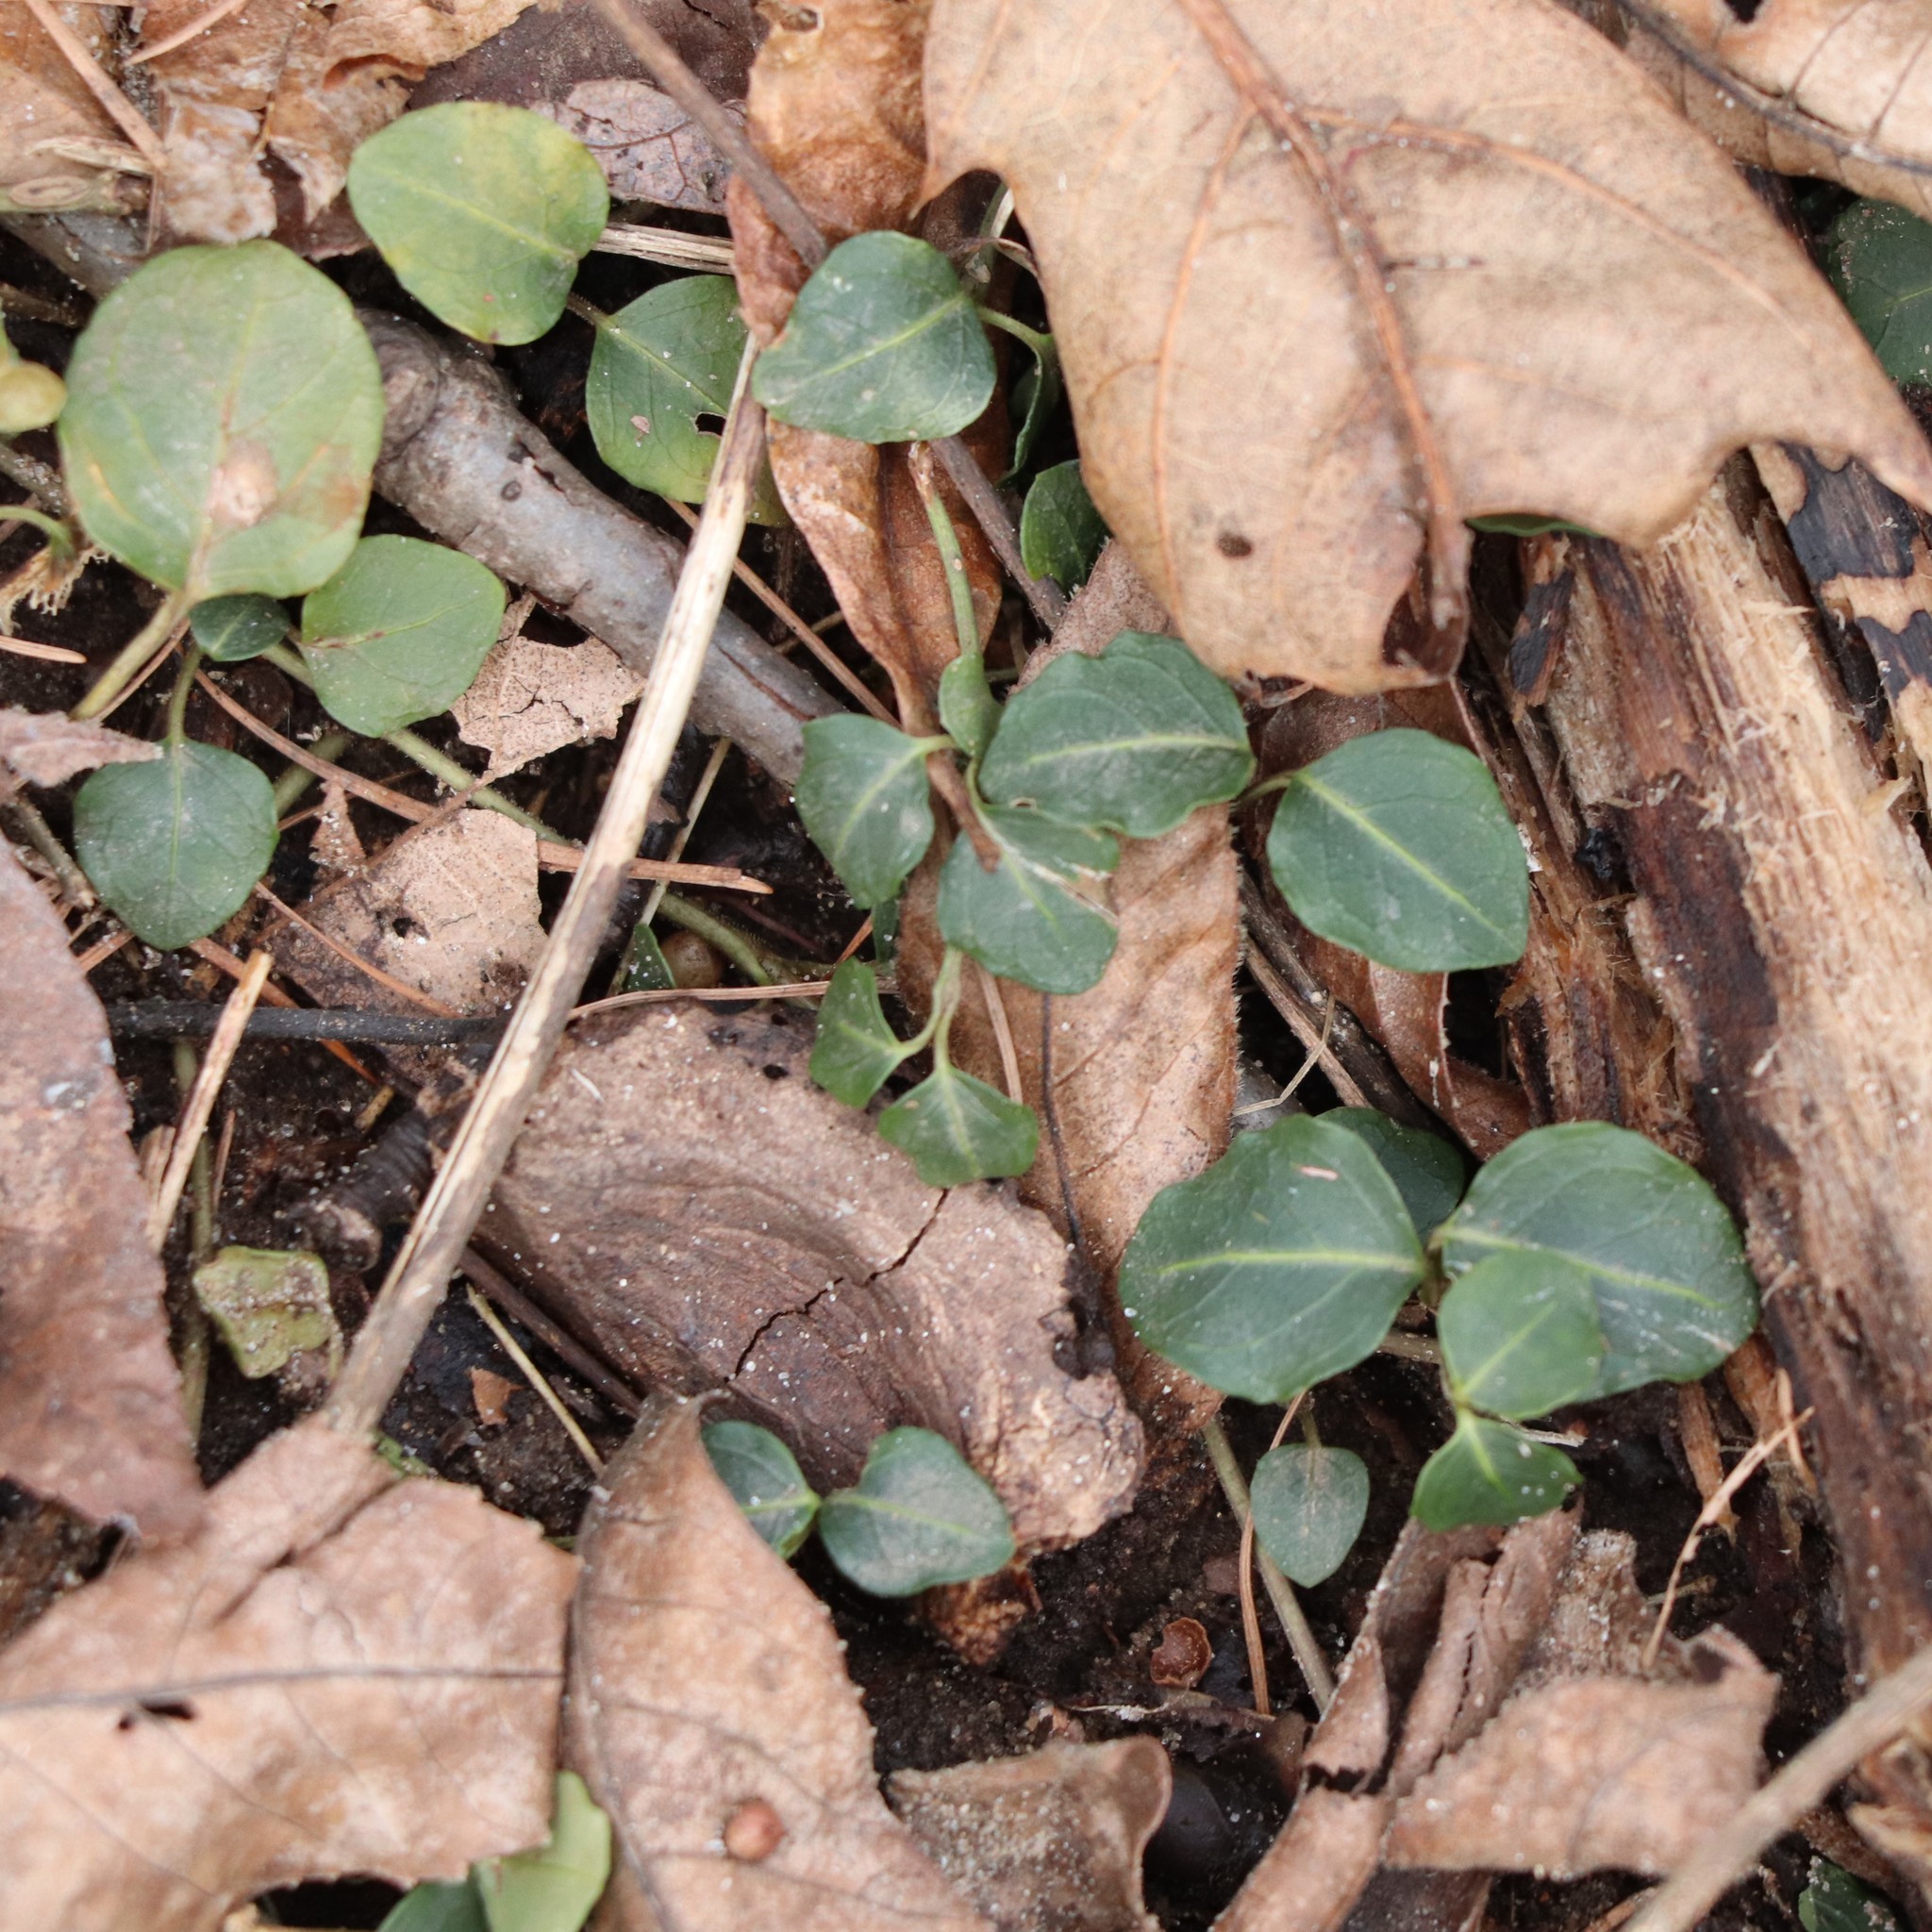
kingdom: Plantae
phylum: Tracheophyta
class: Magnoliopsida
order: Gentianales
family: Rubiaceae
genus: Mitchella
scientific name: Mitchella repens
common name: Partridge-berry
